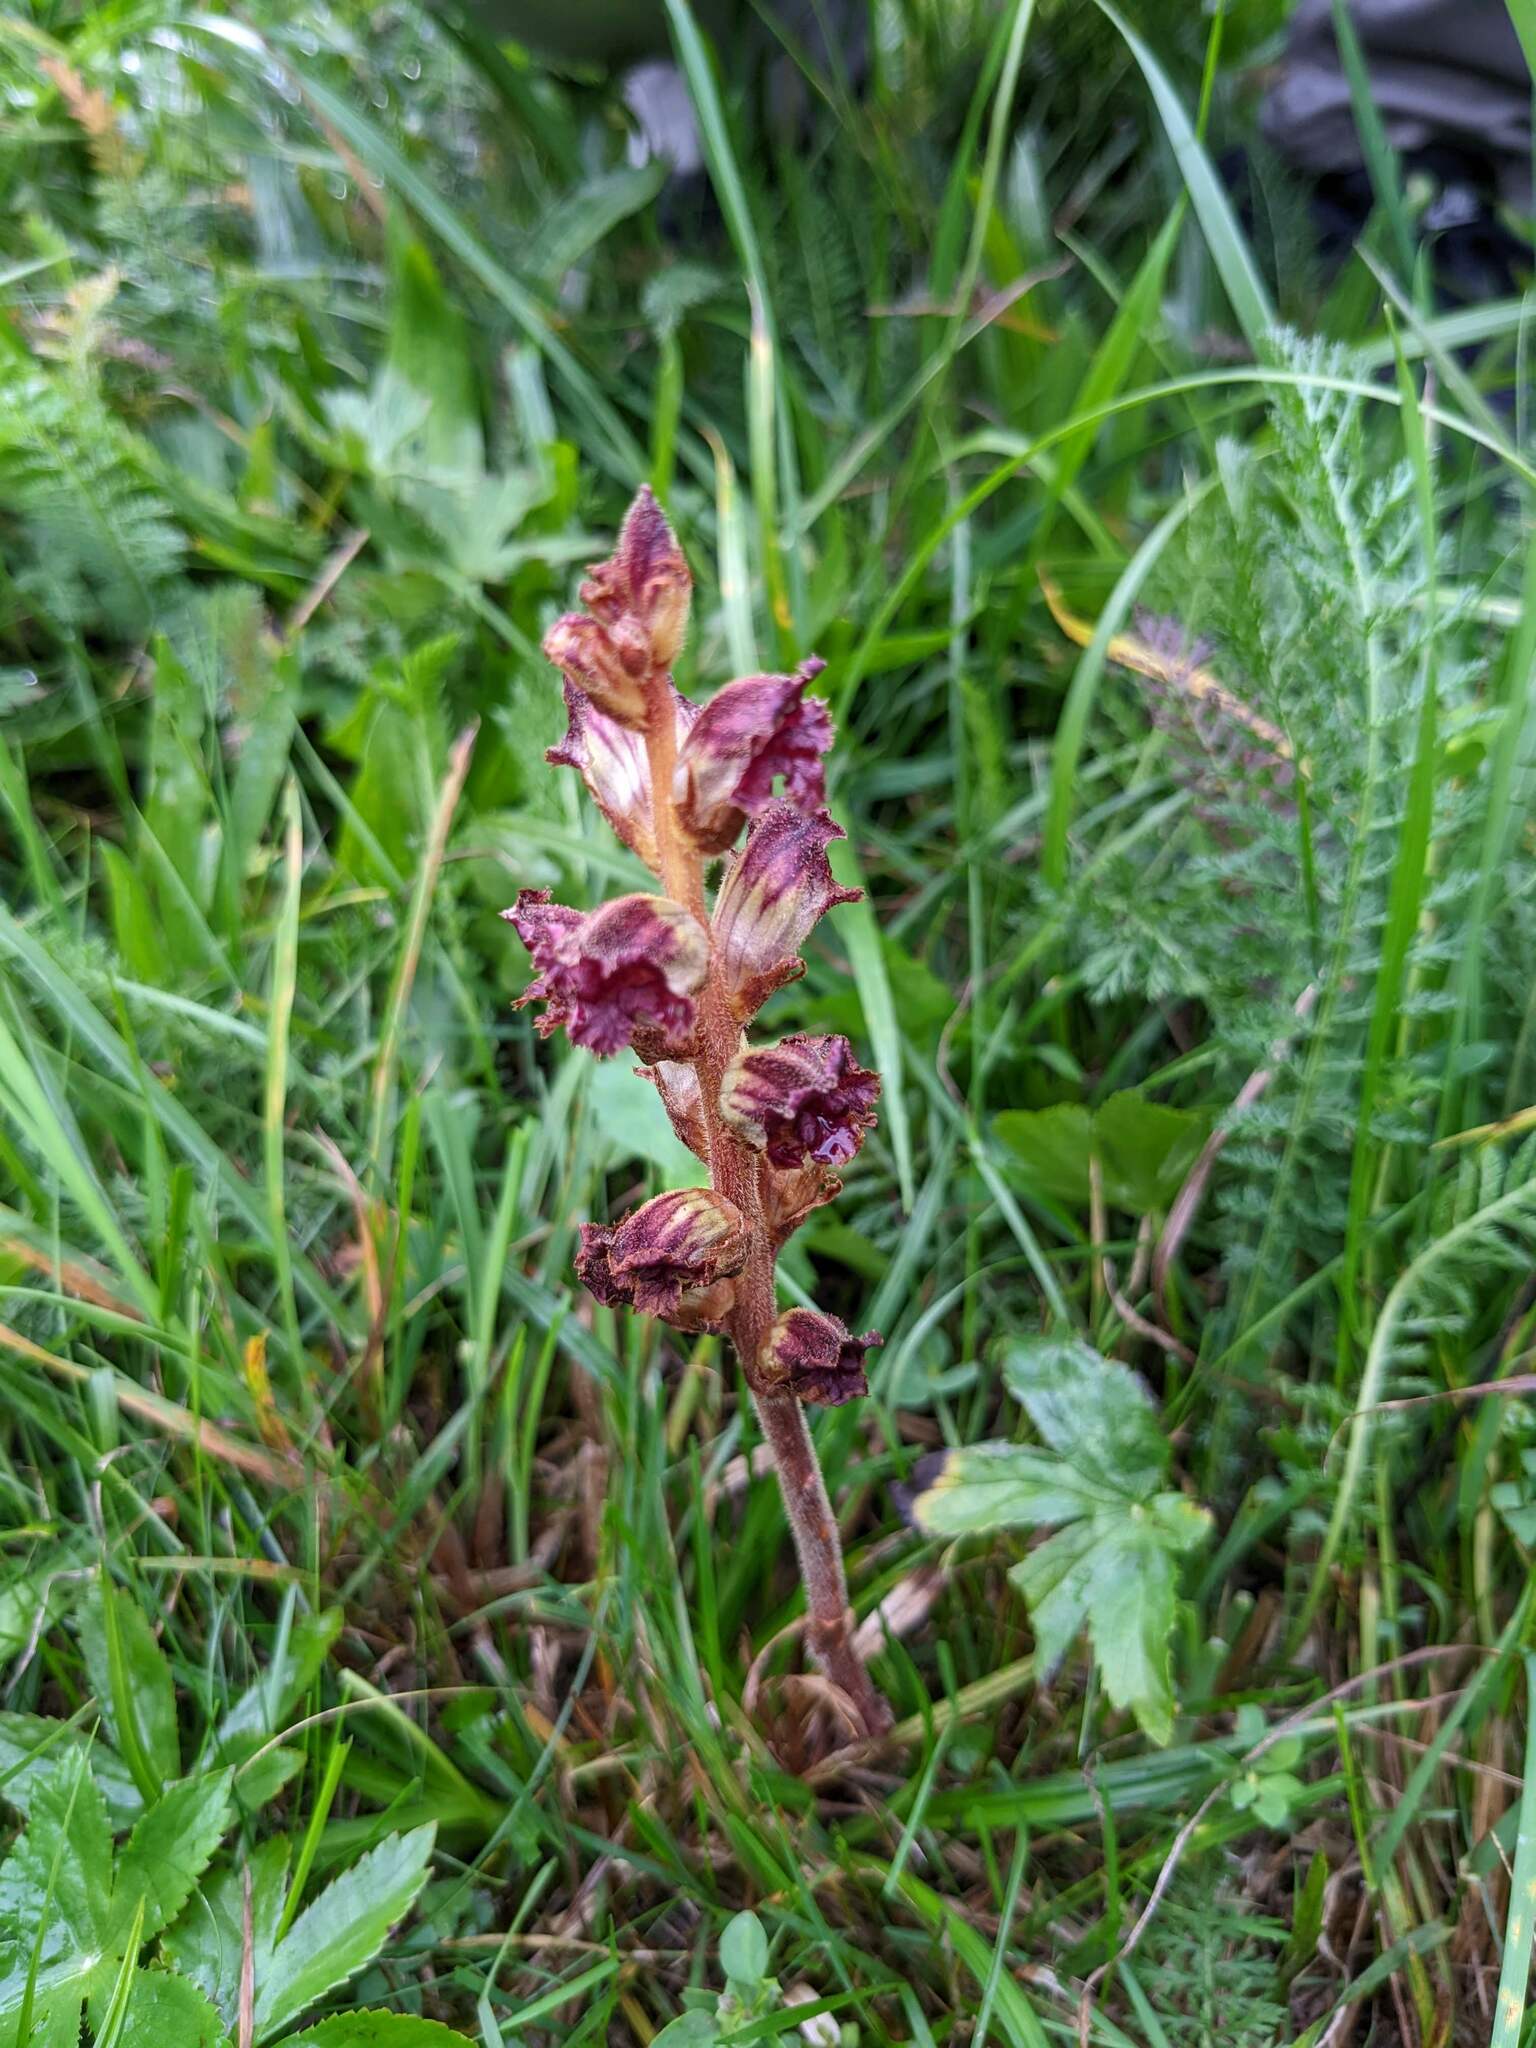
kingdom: Plantae
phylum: Tracheophyta
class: Magnoliopsida
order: Lamiales
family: Orobanchaceae
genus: Orobanche
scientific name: Orobanche gracilis
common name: Slender broomrape
